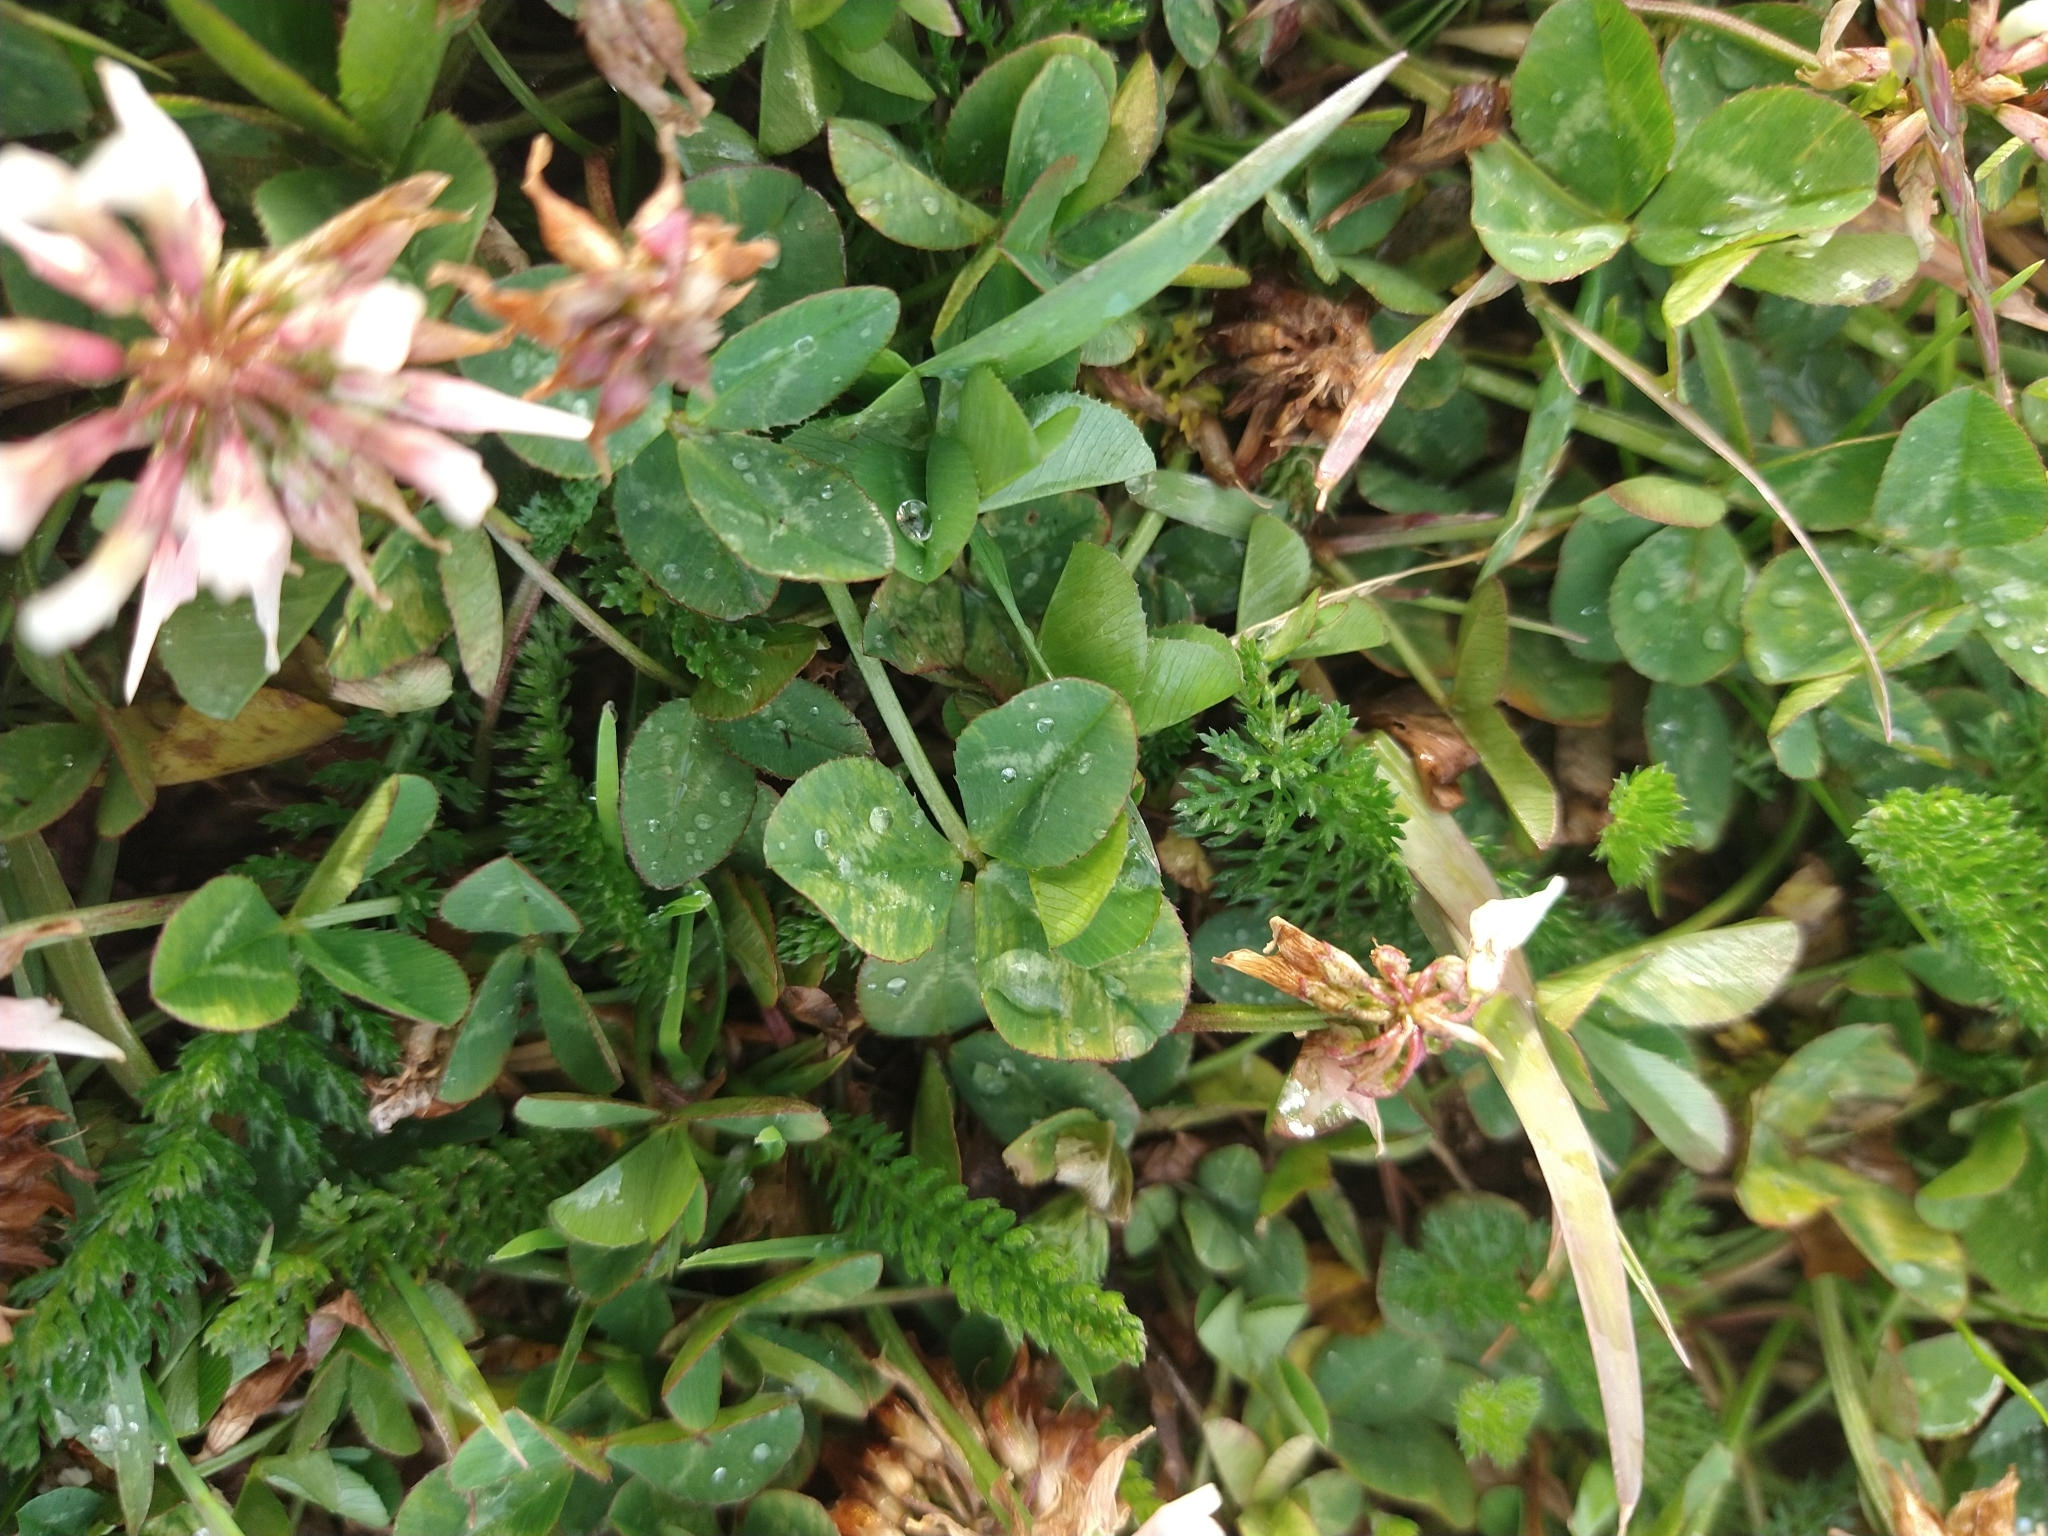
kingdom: Plantae
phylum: Tracheophyta
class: Magnoliopsida
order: Fabales
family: Fabaceae
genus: Trifolium
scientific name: Trifolium repens
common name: White clover
